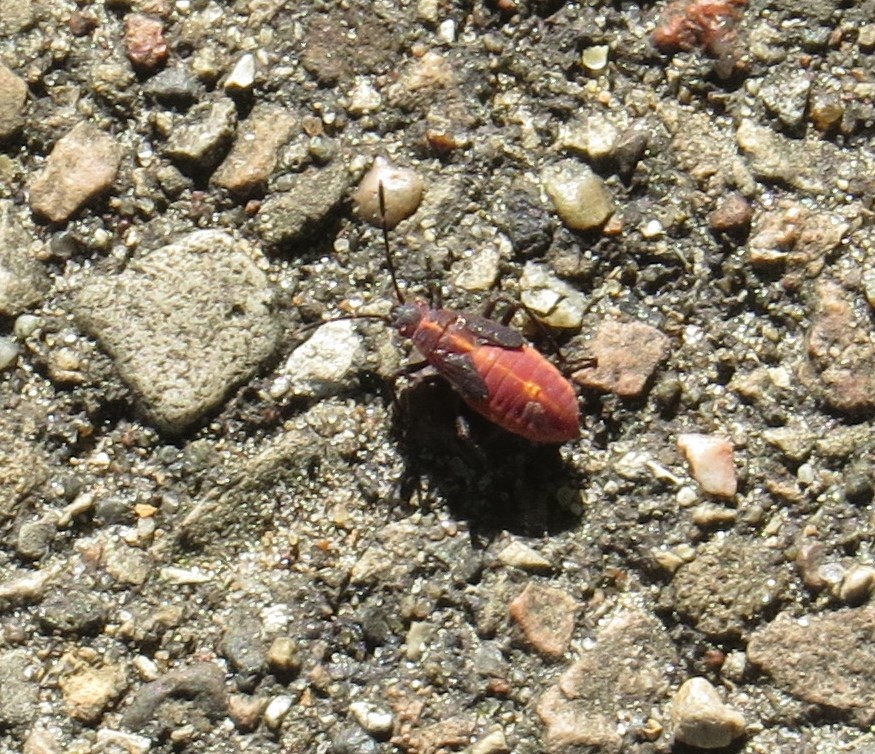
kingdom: Animalia
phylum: Arthropoda
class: Insecta
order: Hemiptera
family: Rhopalidae
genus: Boisea
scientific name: Boisea trivittata
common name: Boxelder bug
